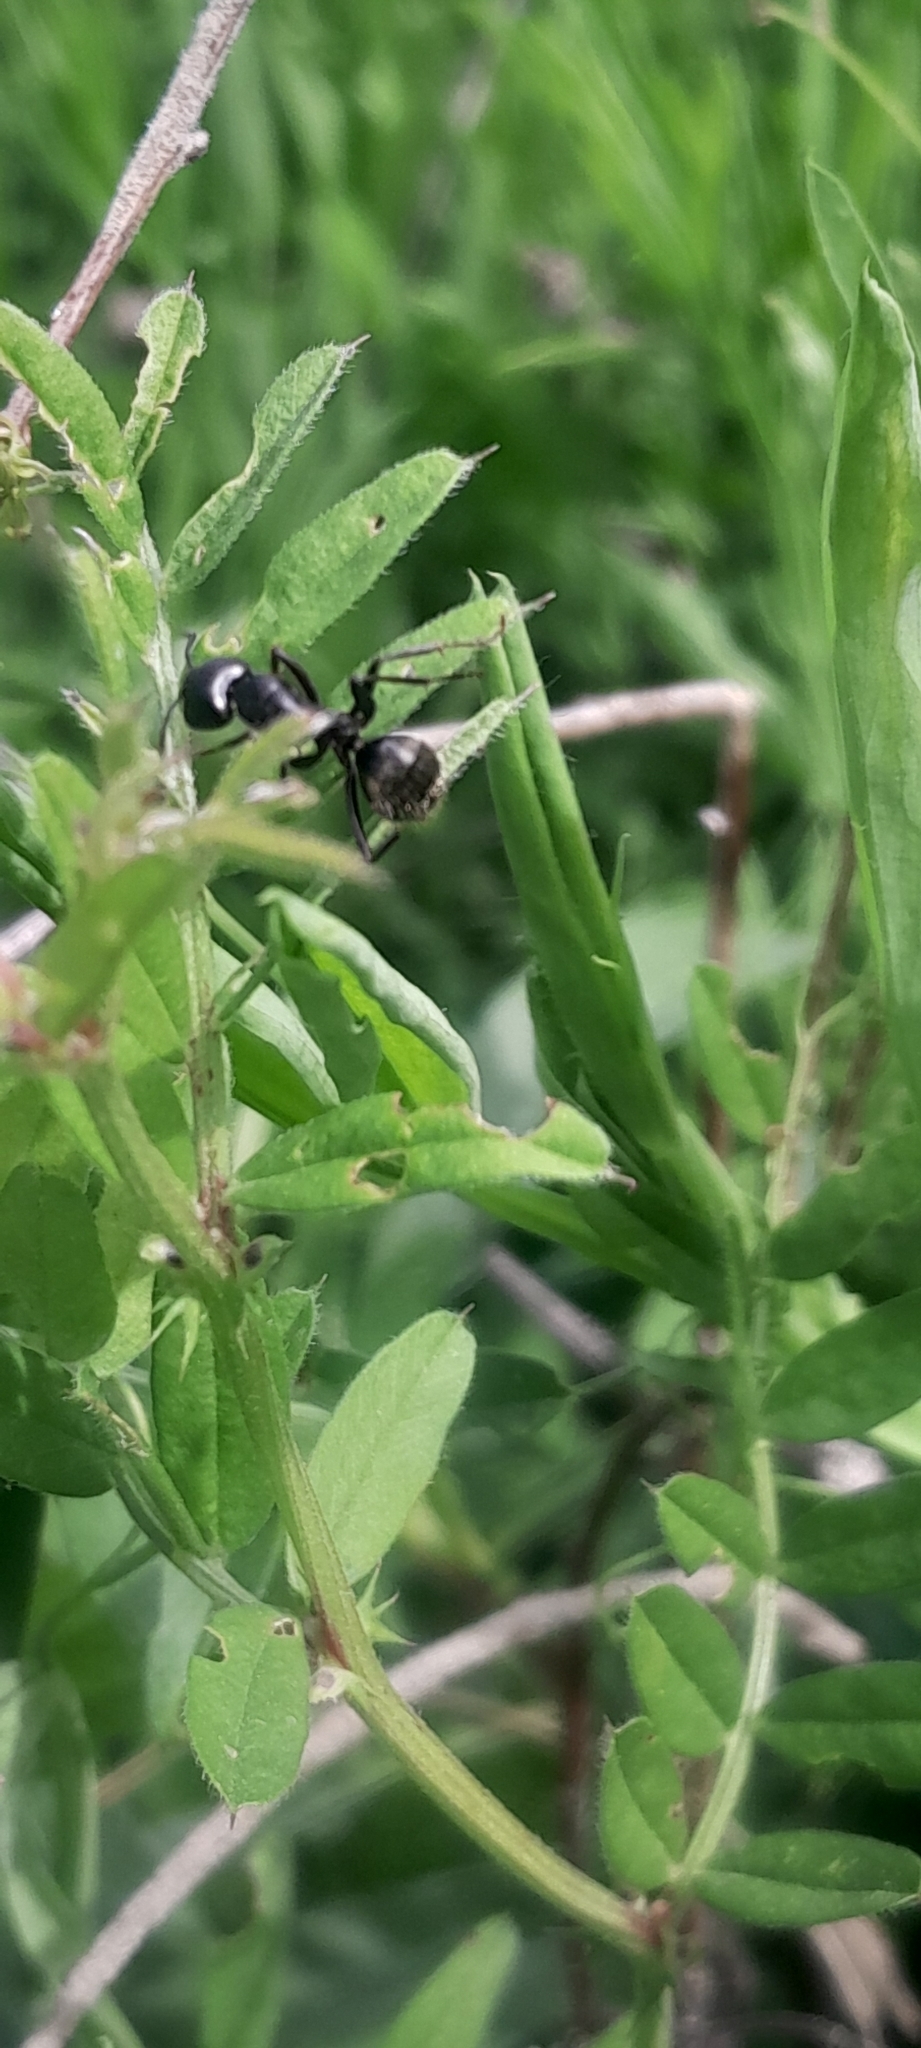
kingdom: Animalia
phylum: Arthropoda
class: Insecta
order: Hymenoptera
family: Formicidae
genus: Camponotus
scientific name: Camponotus pennsylvanicus
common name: Black carpenter ant
